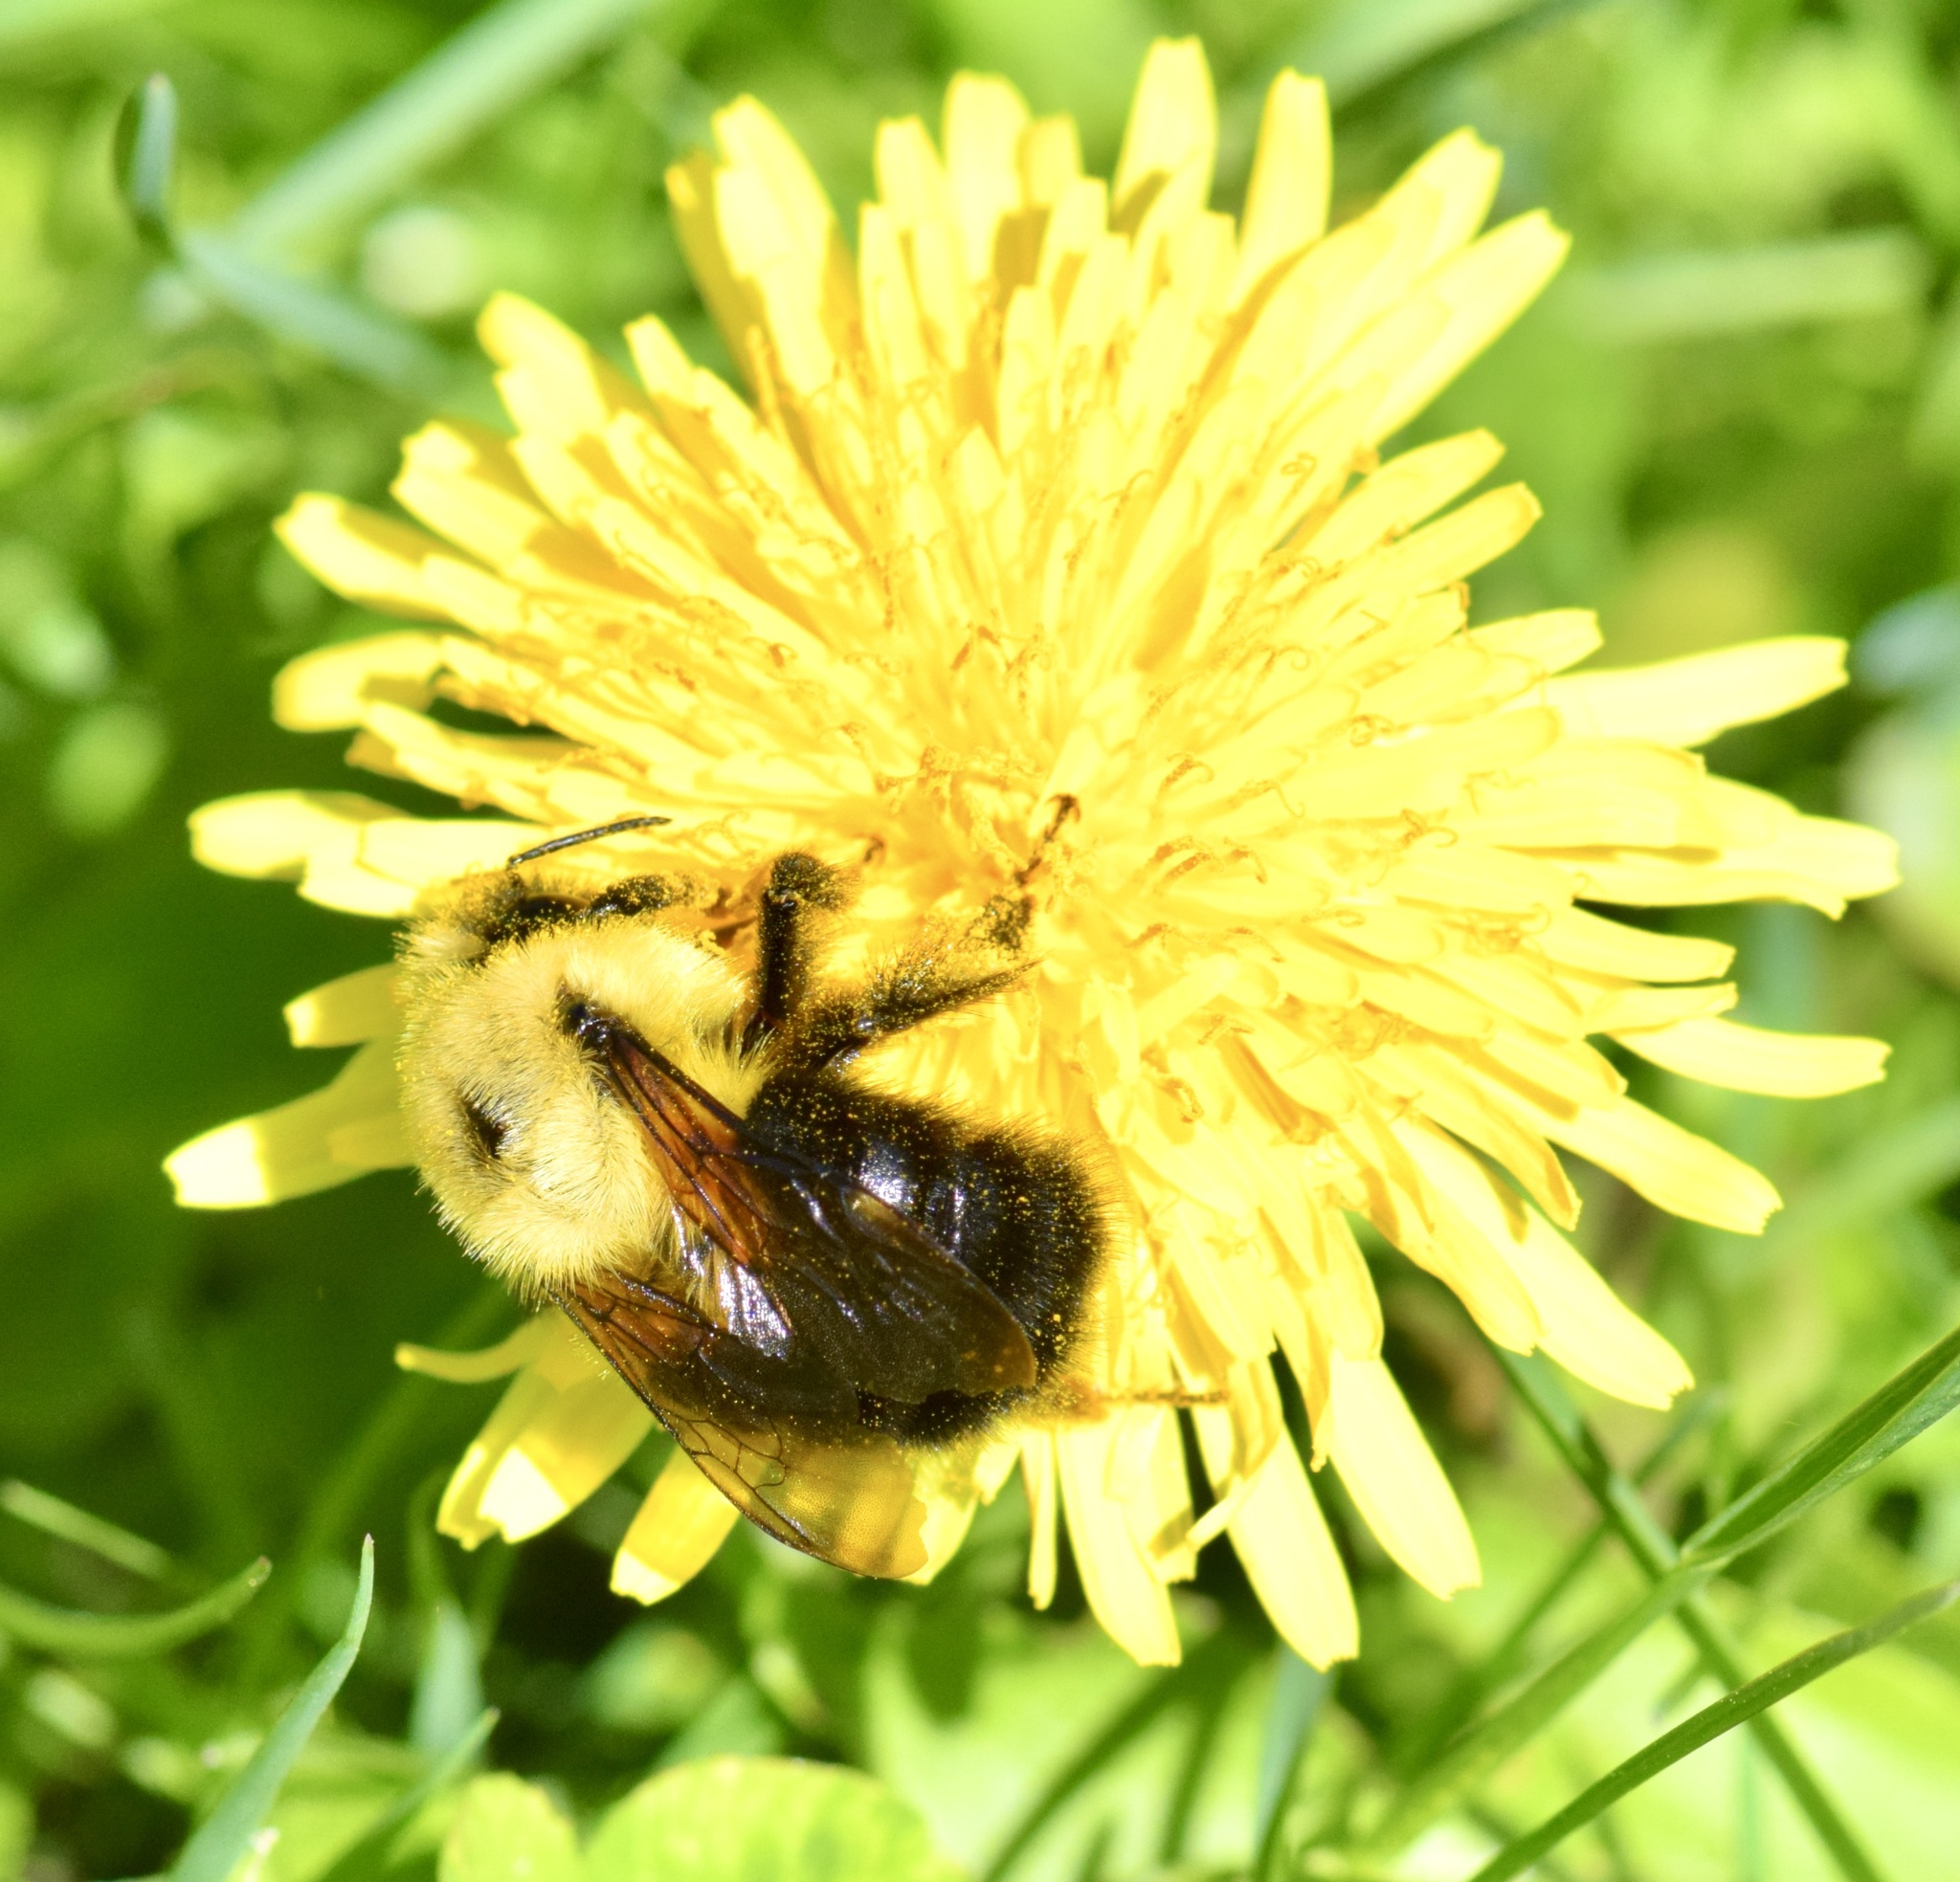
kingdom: Animalia
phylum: Arthropoda
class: Insecta
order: Hymenoptera
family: Apidae
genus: Bombus
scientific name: Bombus bimaculatus
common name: Two-spotted bumble bee
